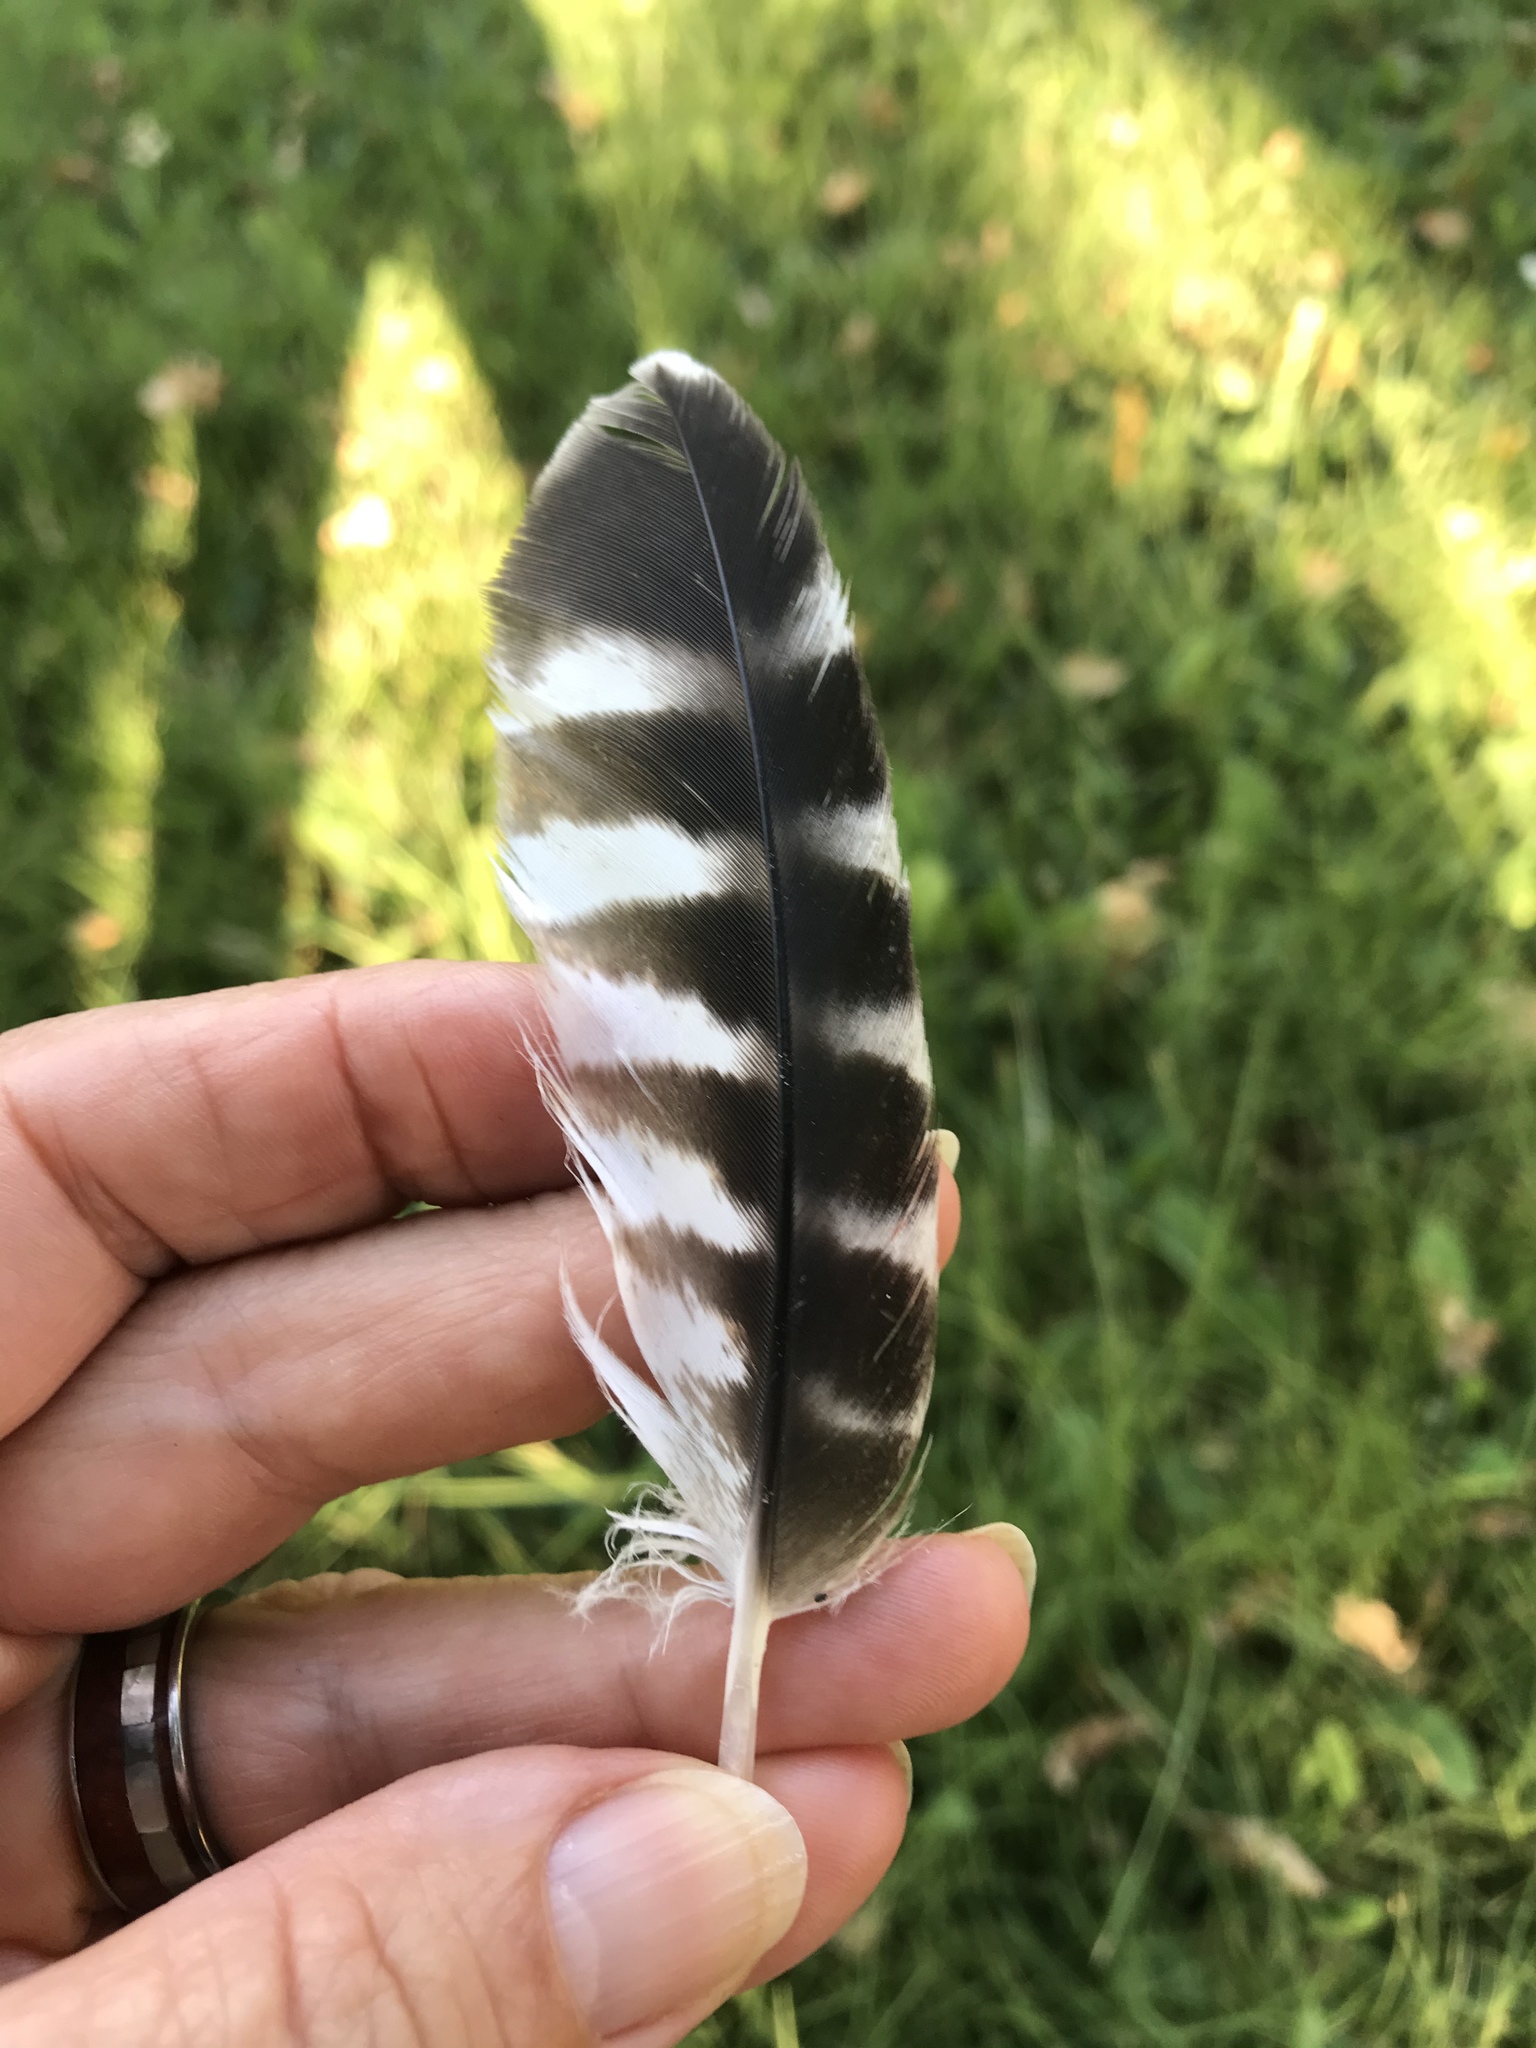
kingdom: Animalia
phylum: Chordata
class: Aves
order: Accipitriformes
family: Accipitridae
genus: Buteo
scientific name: Buteo lineatus
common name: Red-shouldered hawk
